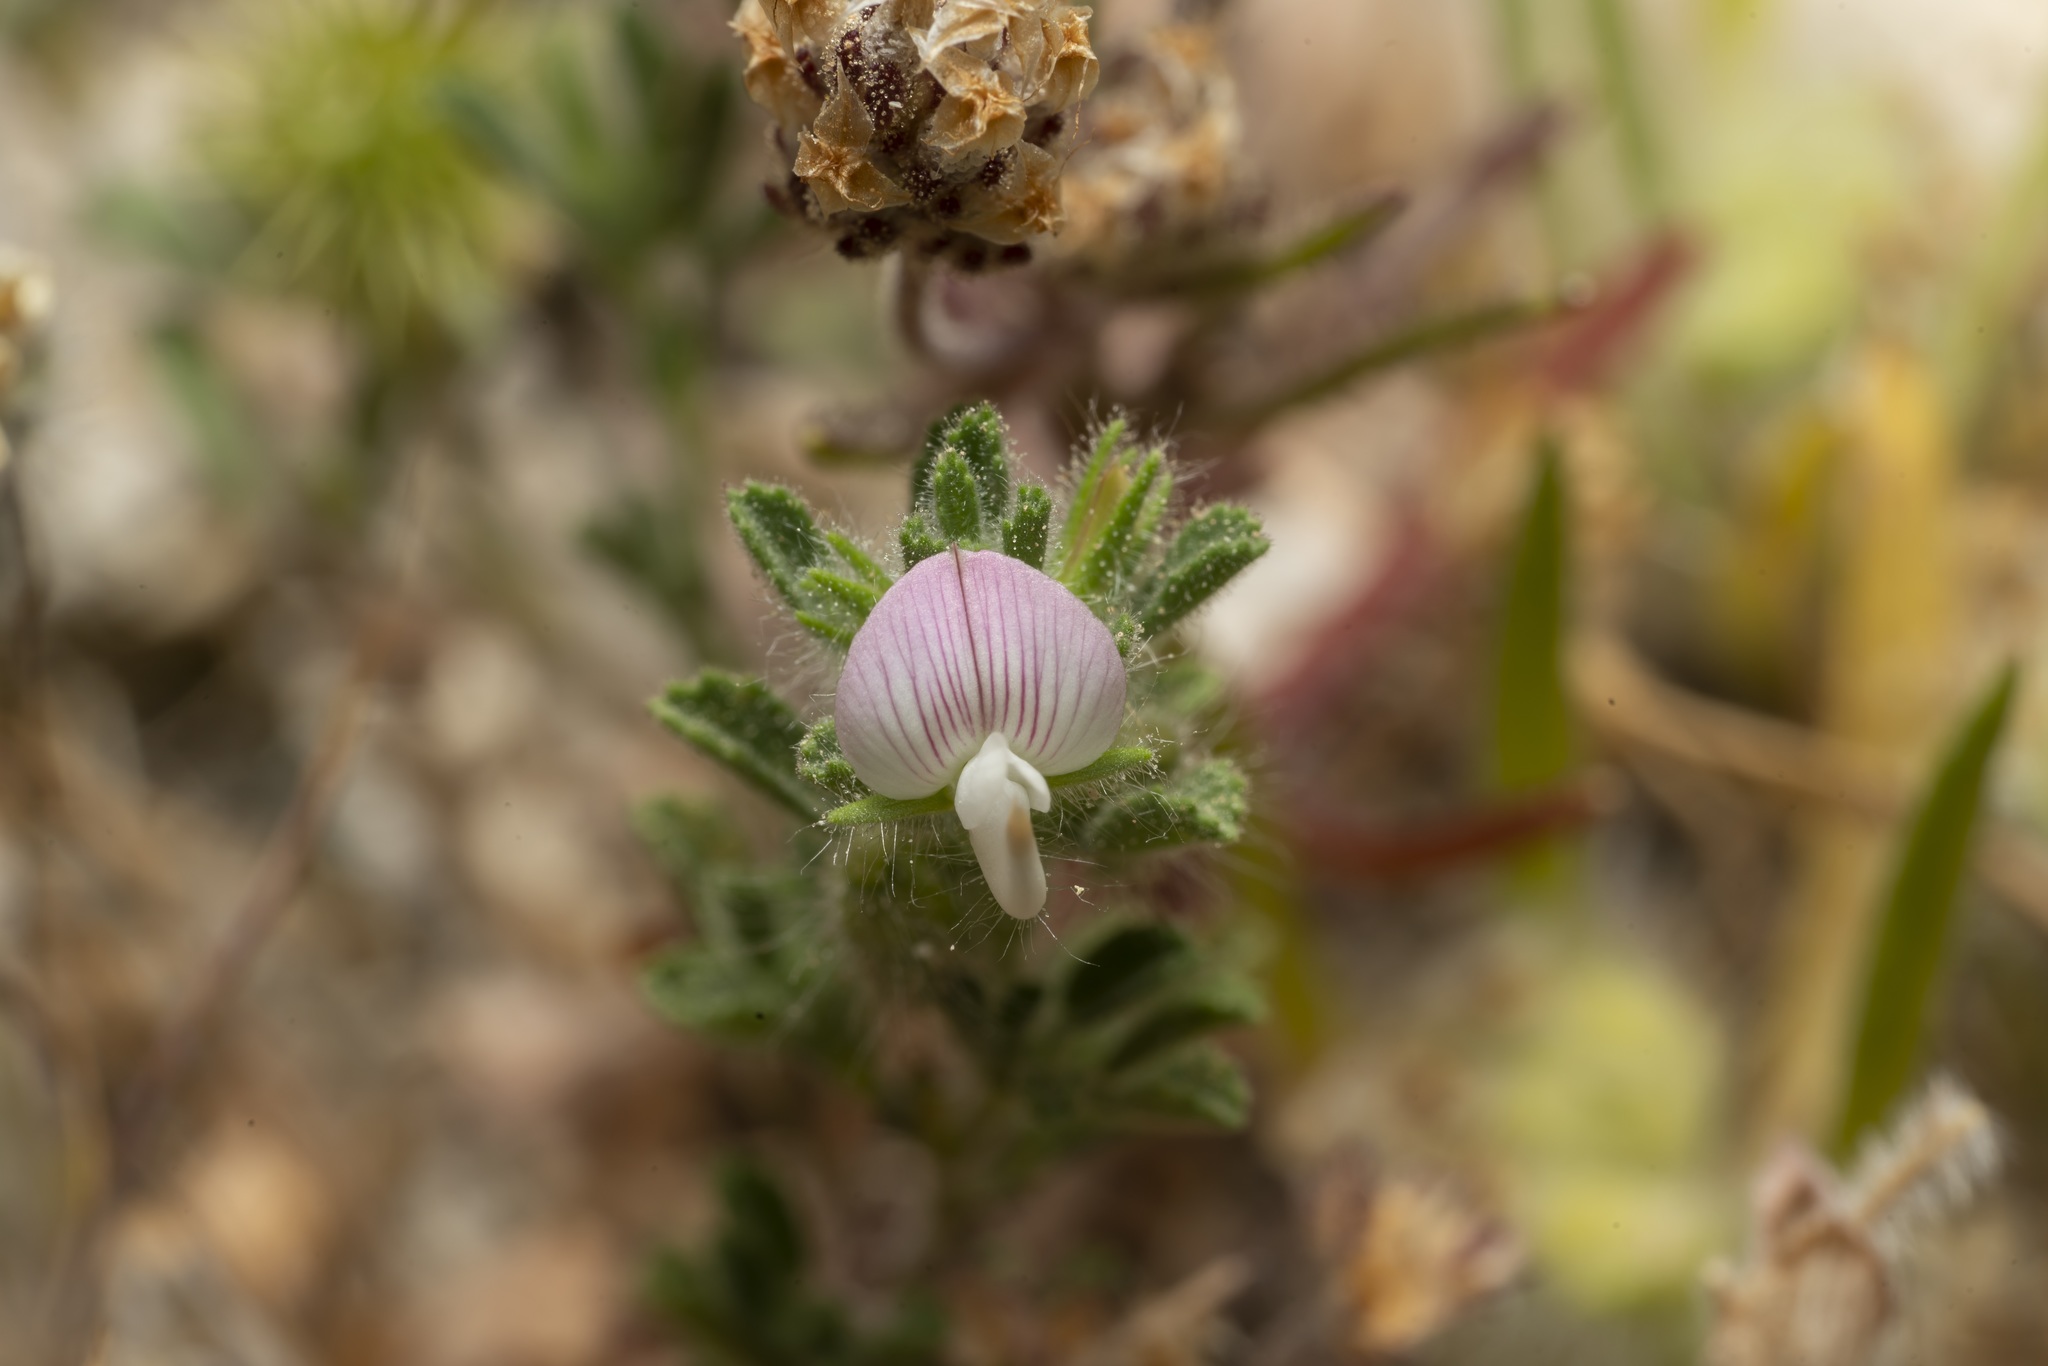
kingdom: Plantae
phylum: Tracheophyta
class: Magnoliopsida
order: Fabales
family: Fabaceae
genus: Ononis
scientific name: Ononis reclinata
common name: Small restharrow
